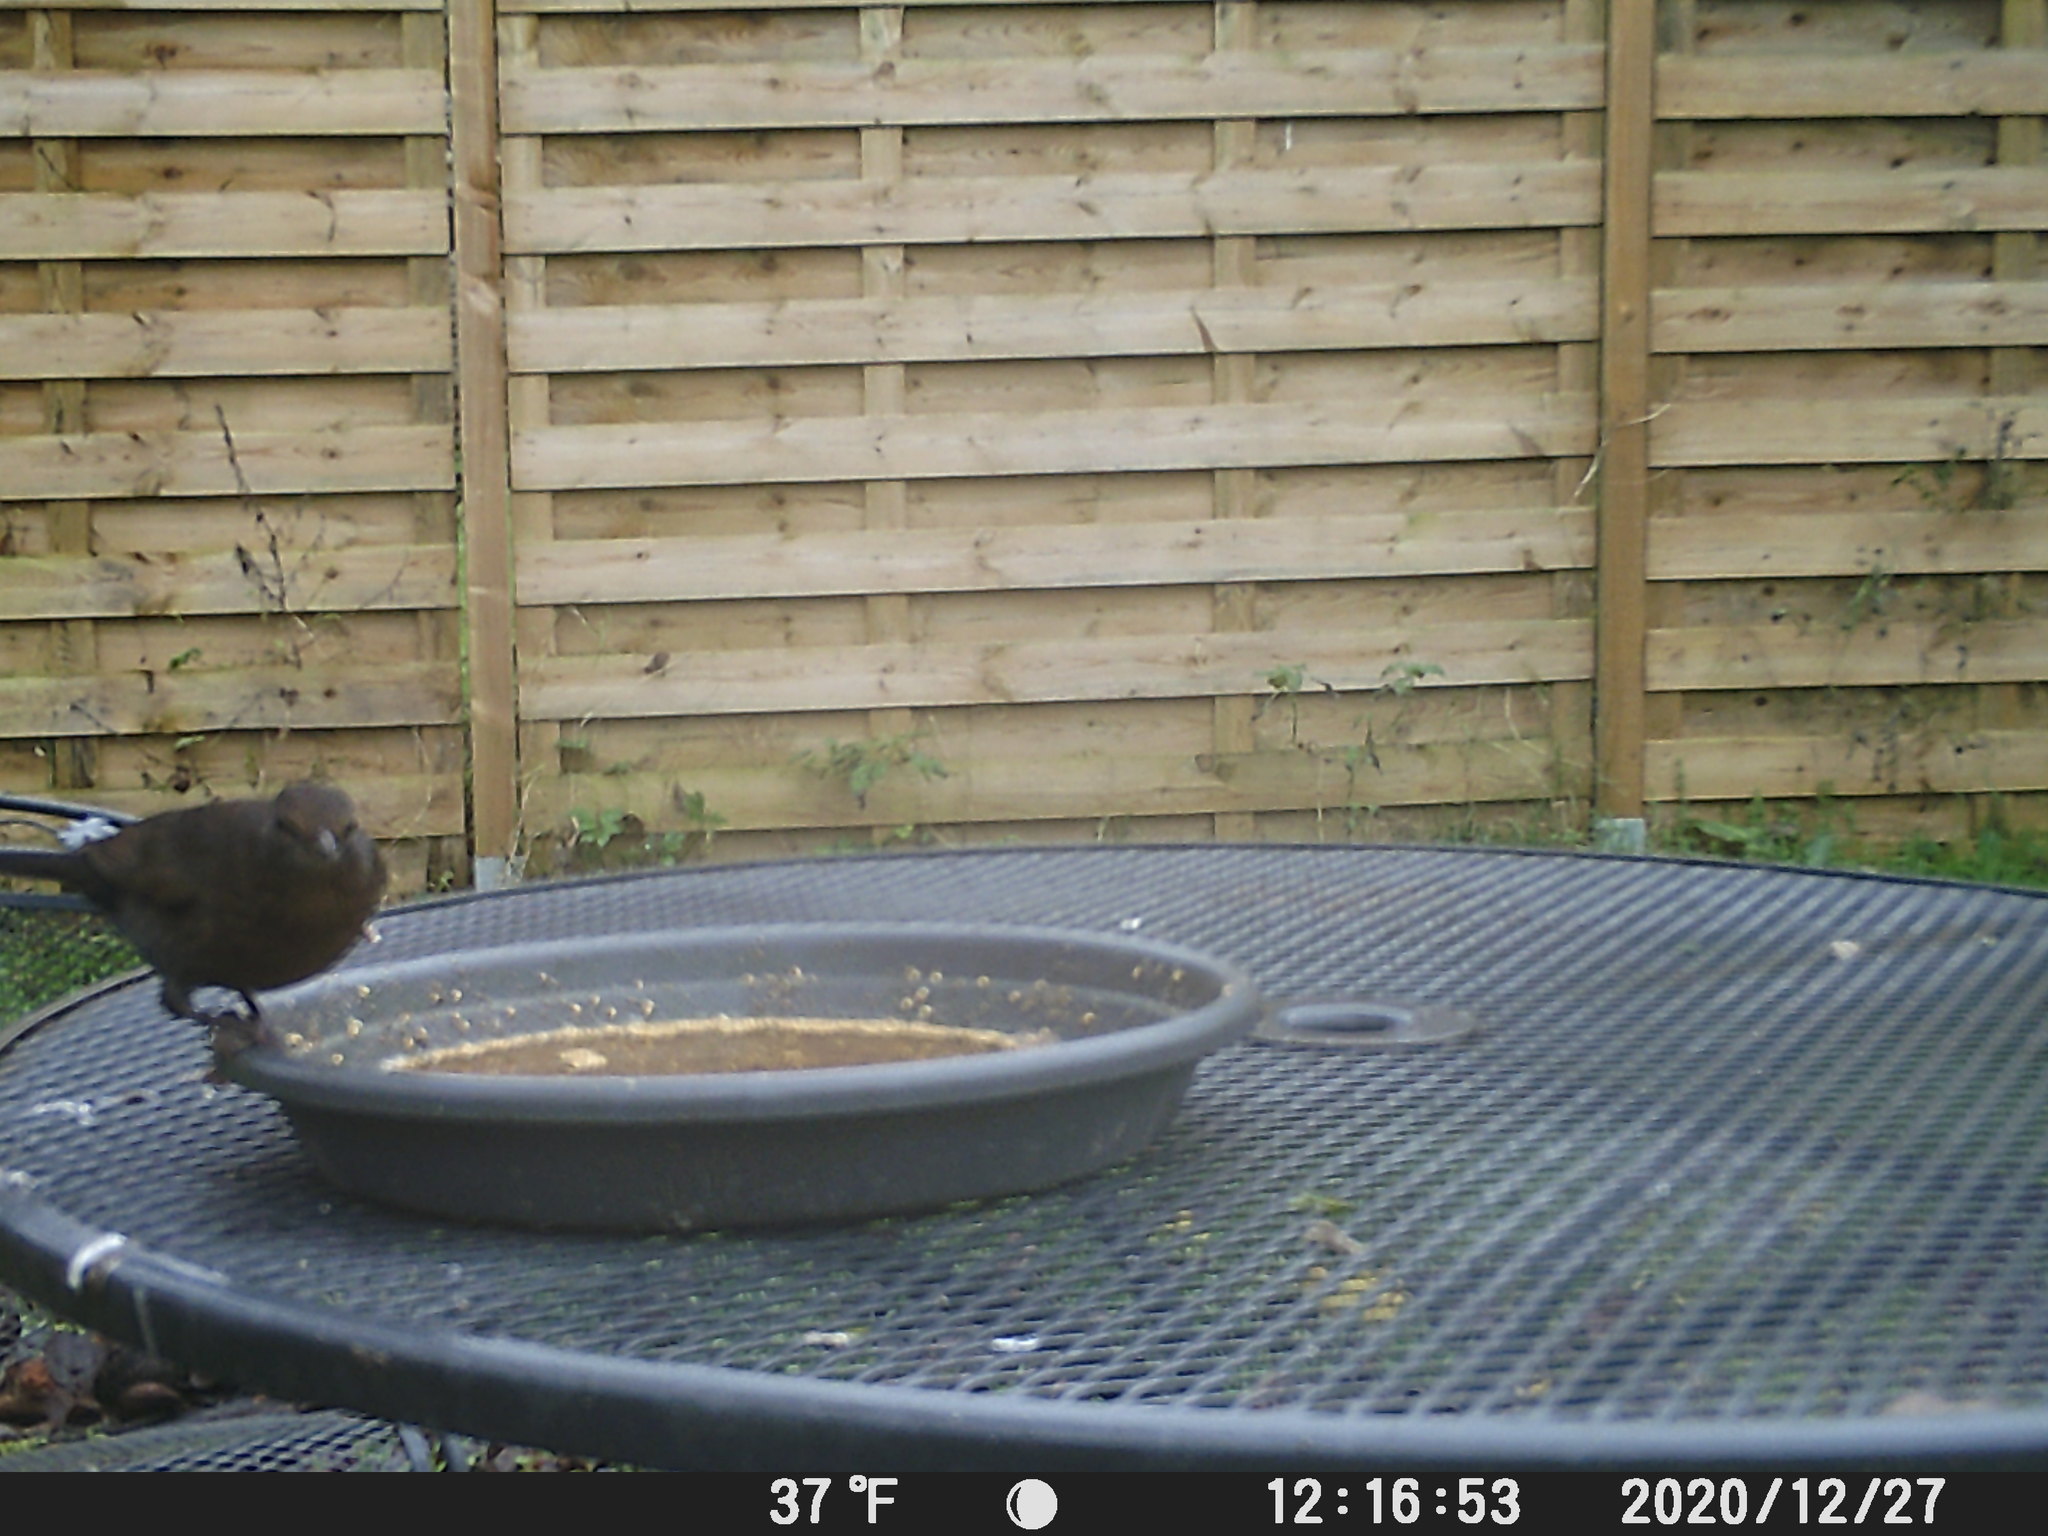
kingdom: Animalia
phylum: Chordata
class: Aves
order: Passeriformes
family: Turdidae
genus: Turdus
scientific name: Turdus merula
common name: Common blackbird
